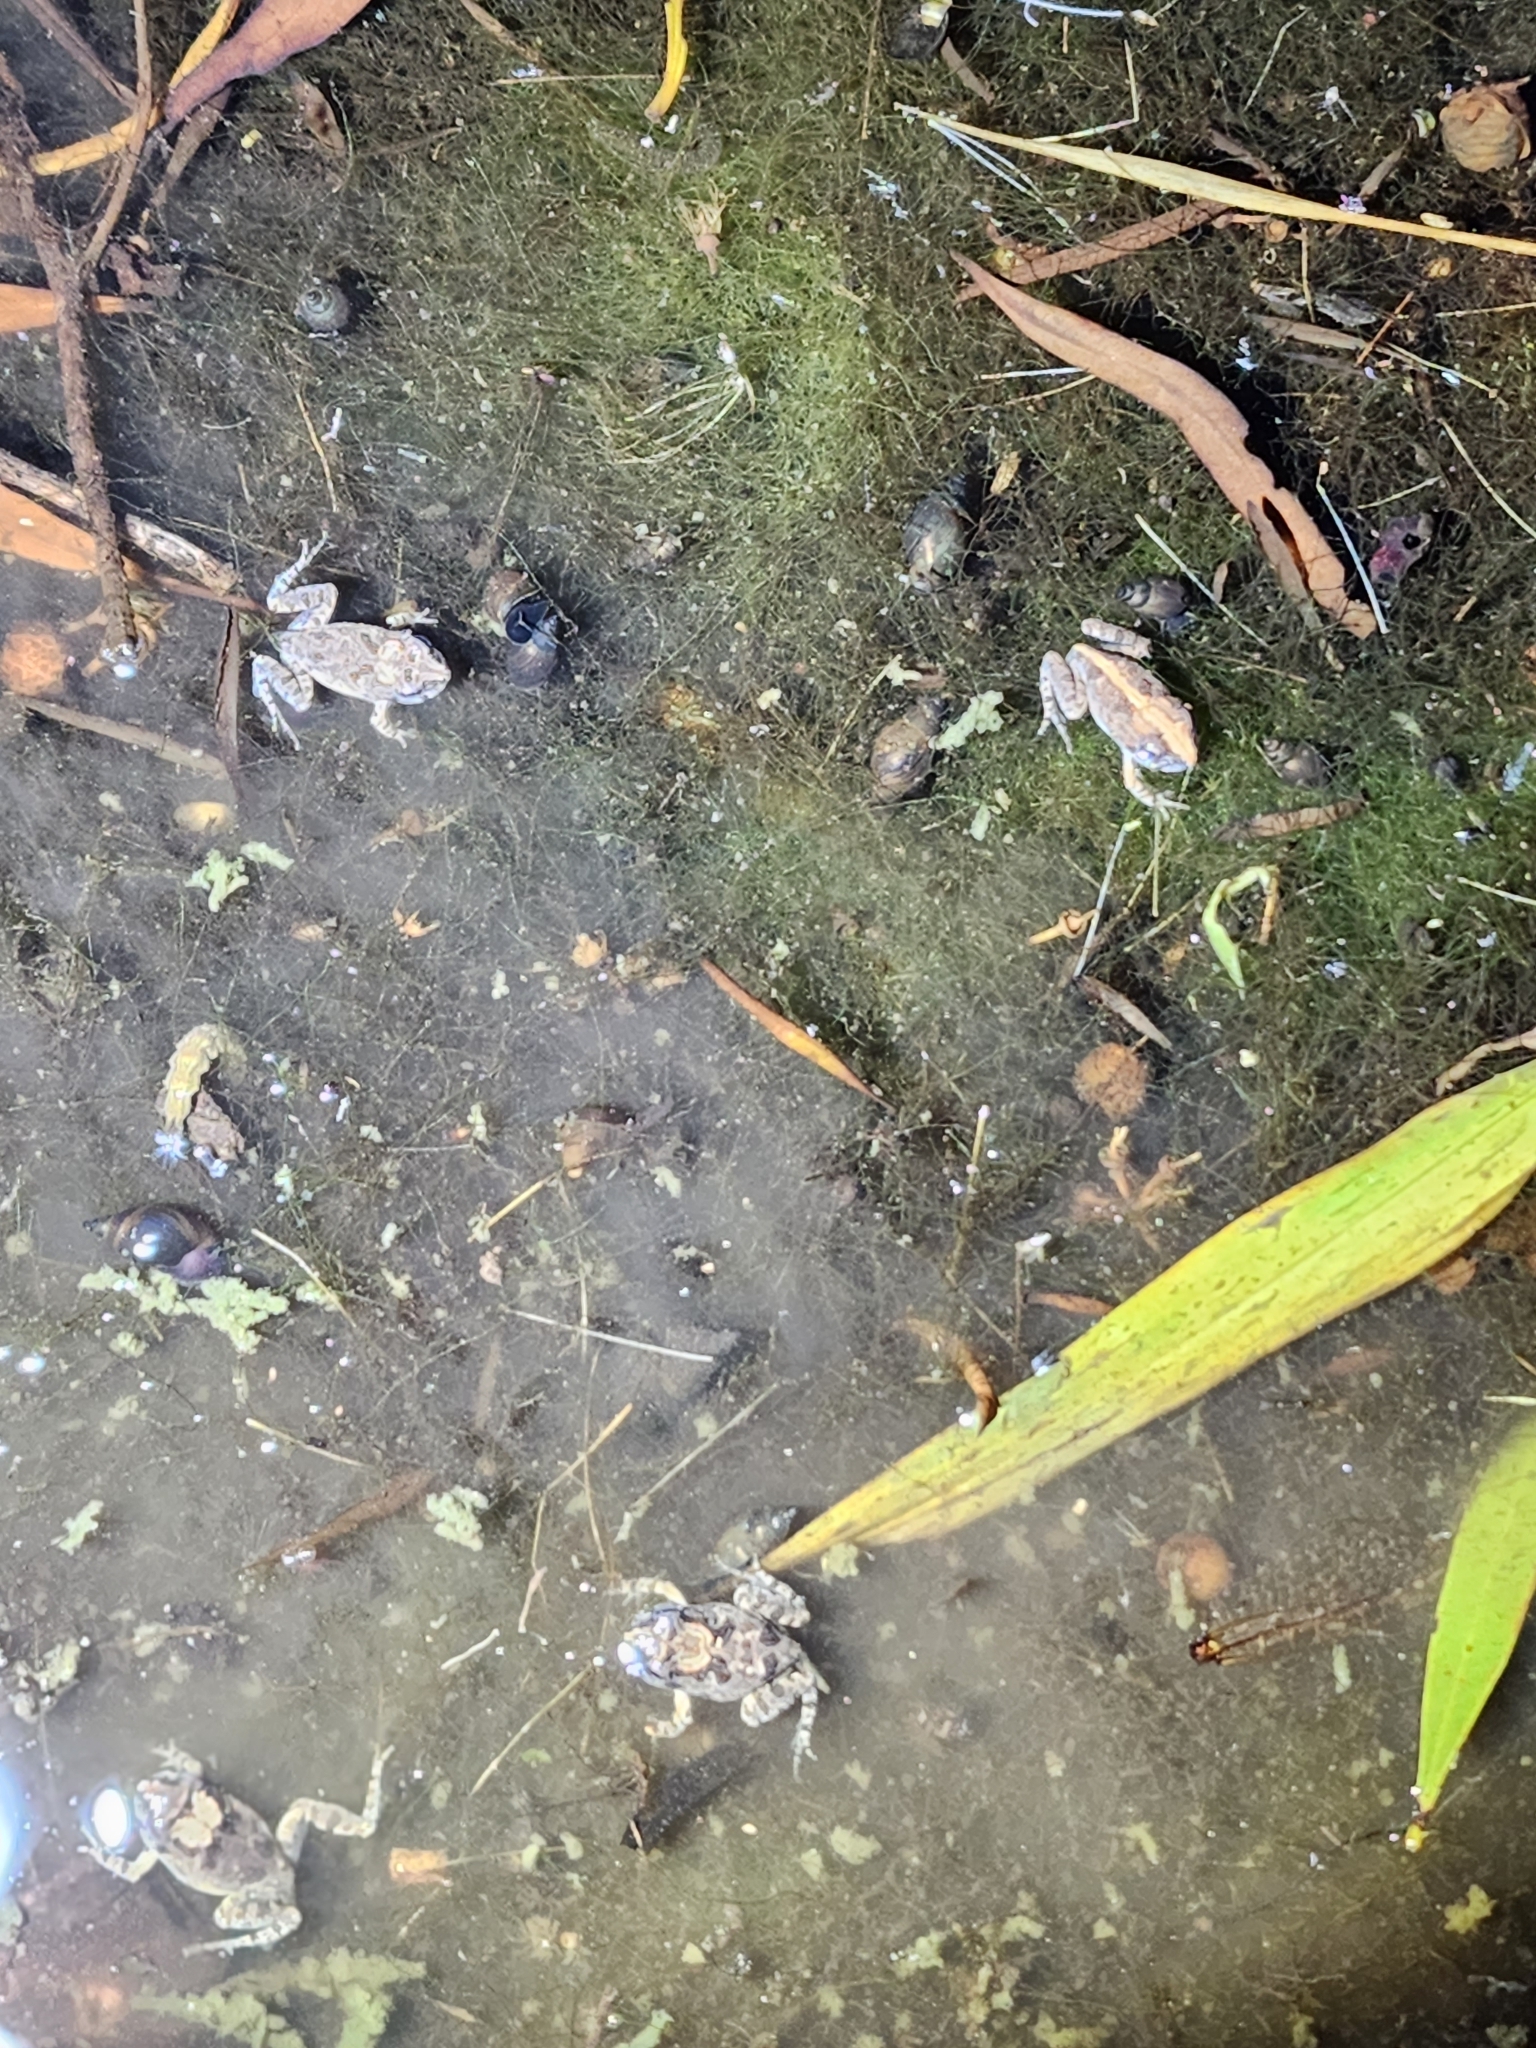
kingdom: Animalia
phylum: Chordata
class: Amphibia
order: Anura
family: Limnodynastidae
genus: Platyplectrum
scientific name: Platyplectrum ornatum
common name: Ornate burrowing frog
